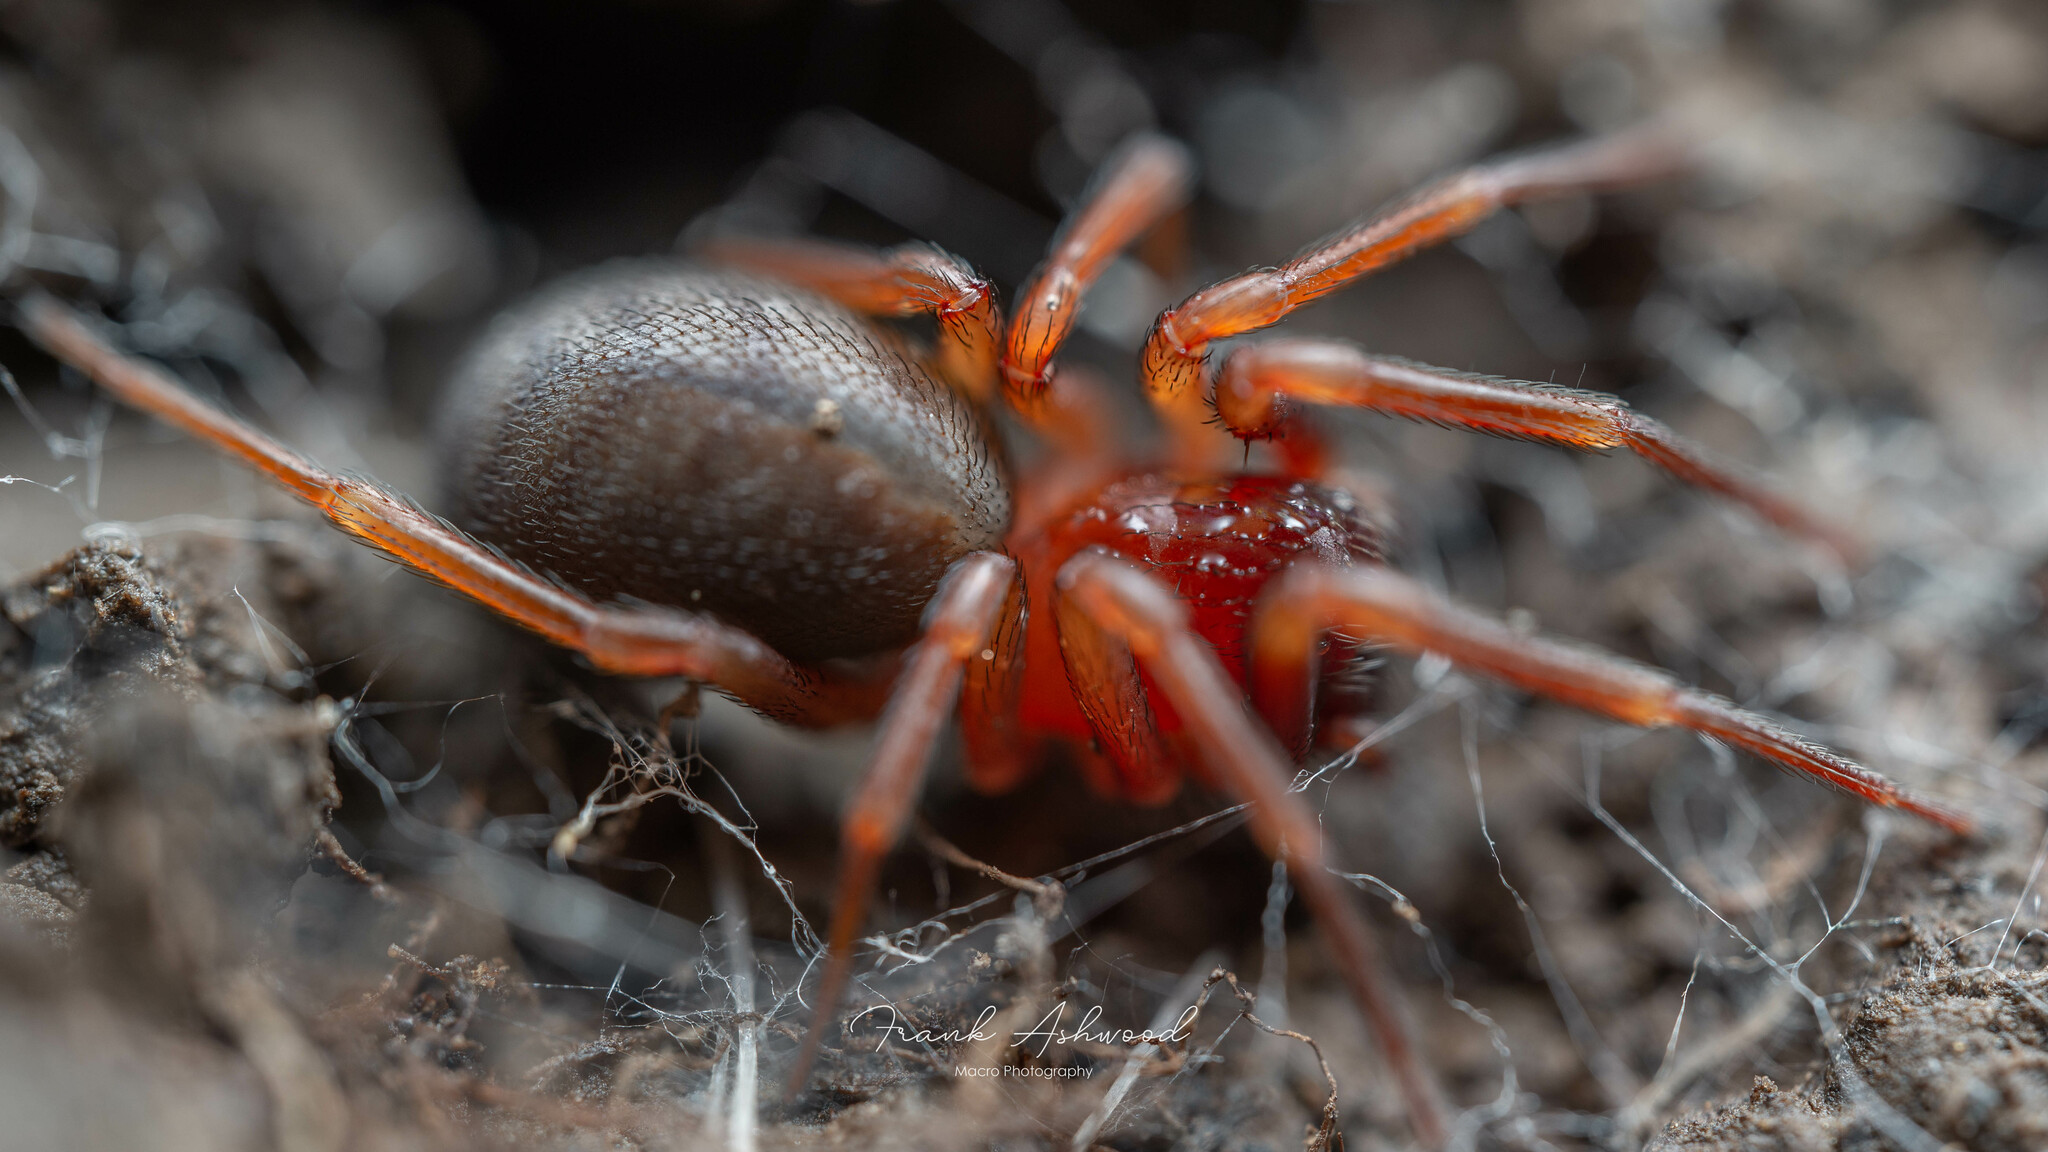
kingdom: Animalia
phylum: Arthropoda
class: Arachnida
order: Araneae
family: Periegopidae
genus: Periegops
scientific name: Periegops suterii
